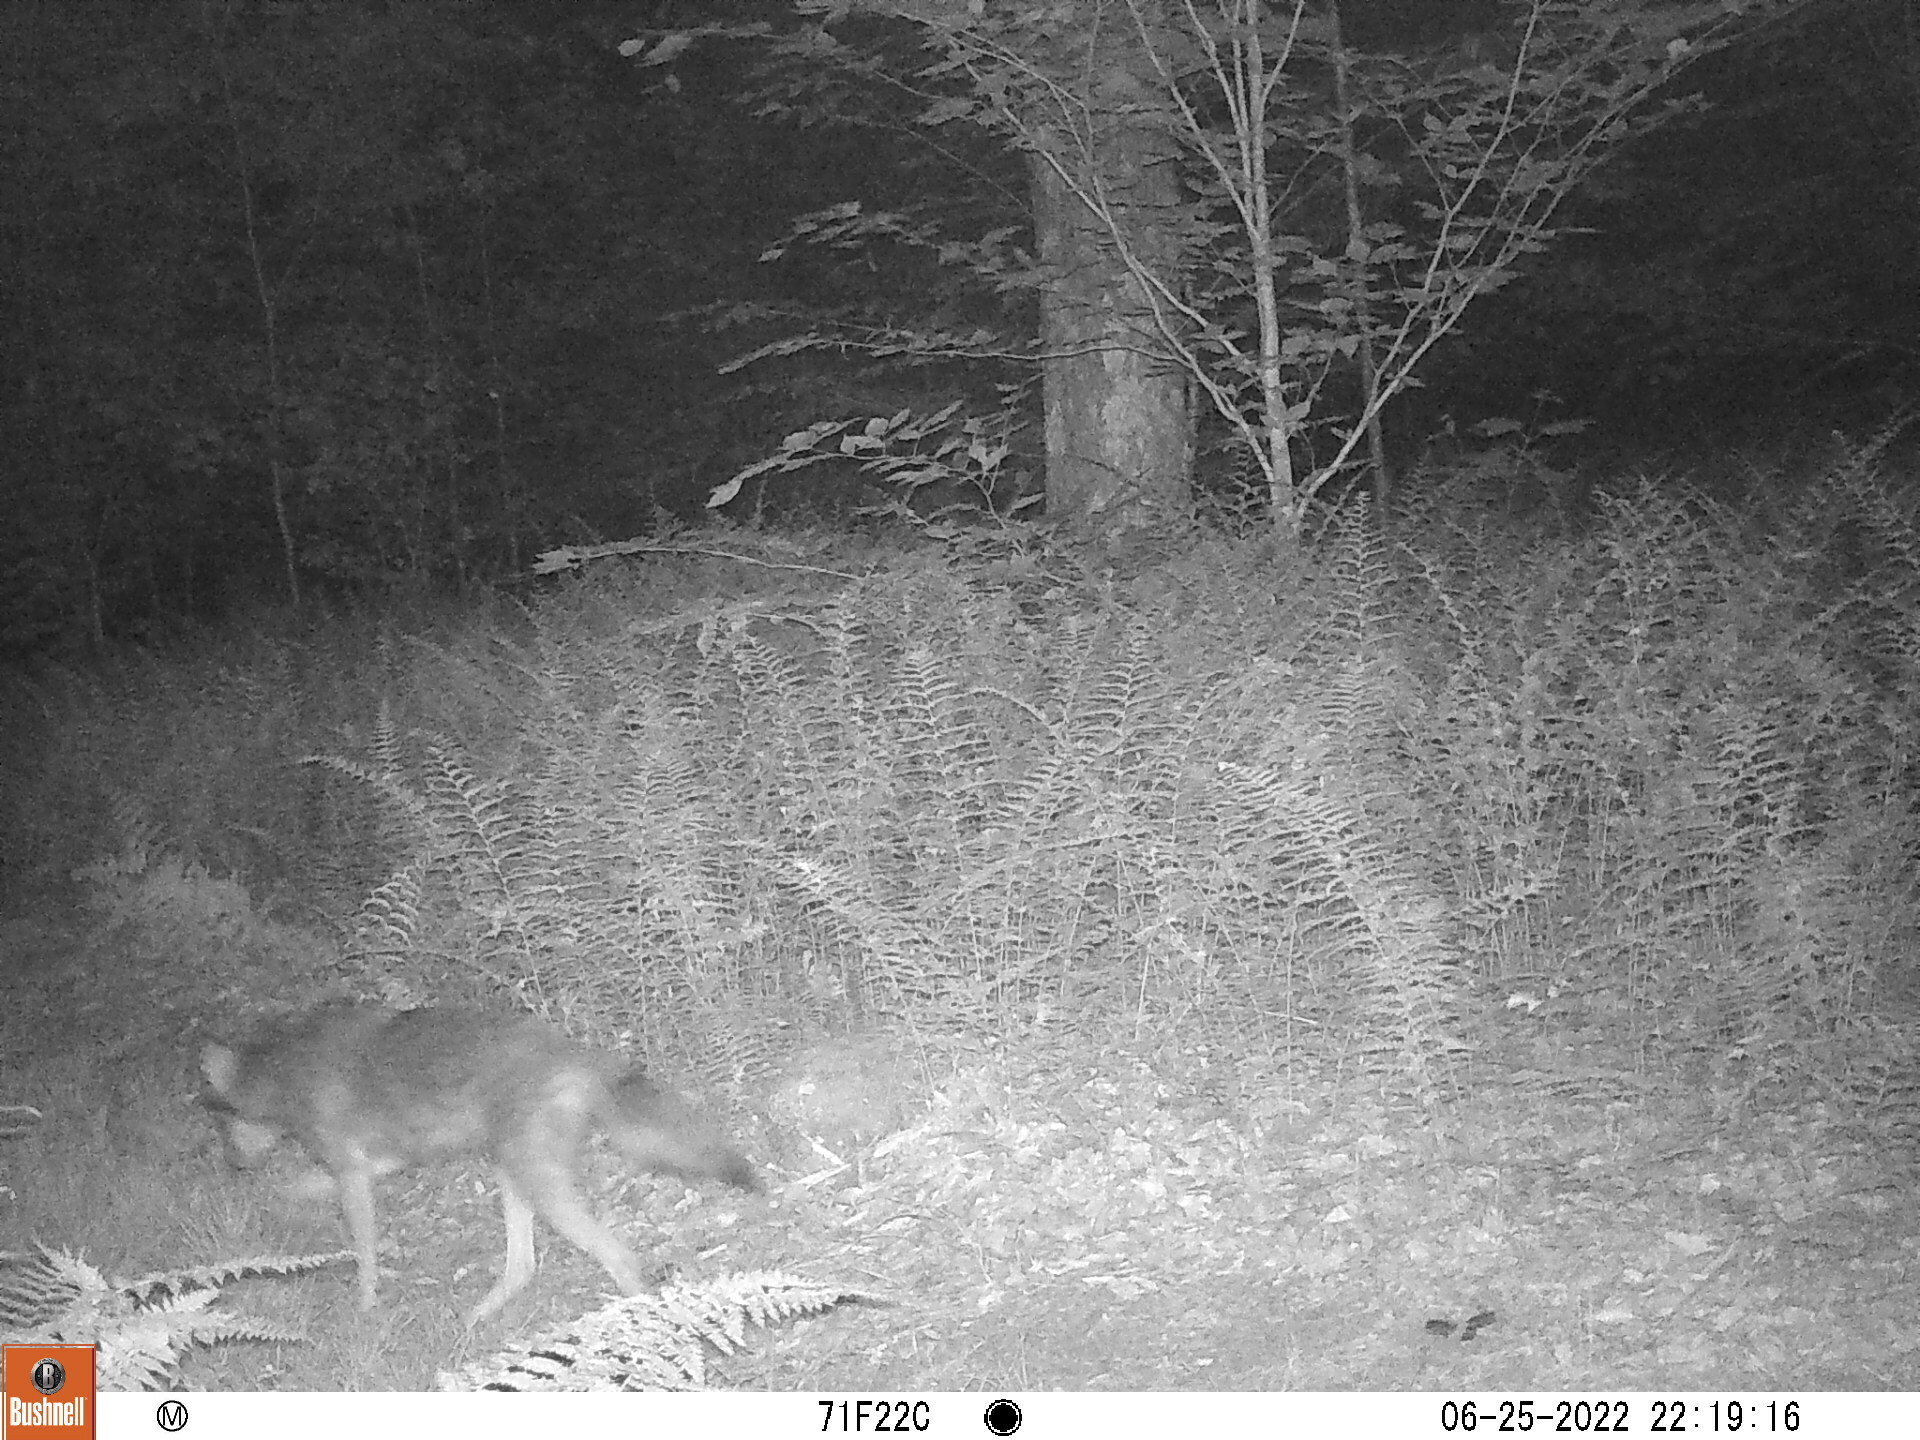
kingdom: Animalia
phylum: Chordata
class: Mammalia
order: Carnivora
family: Canidae
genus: Canis
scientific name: Canis latrans
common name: Coyote
